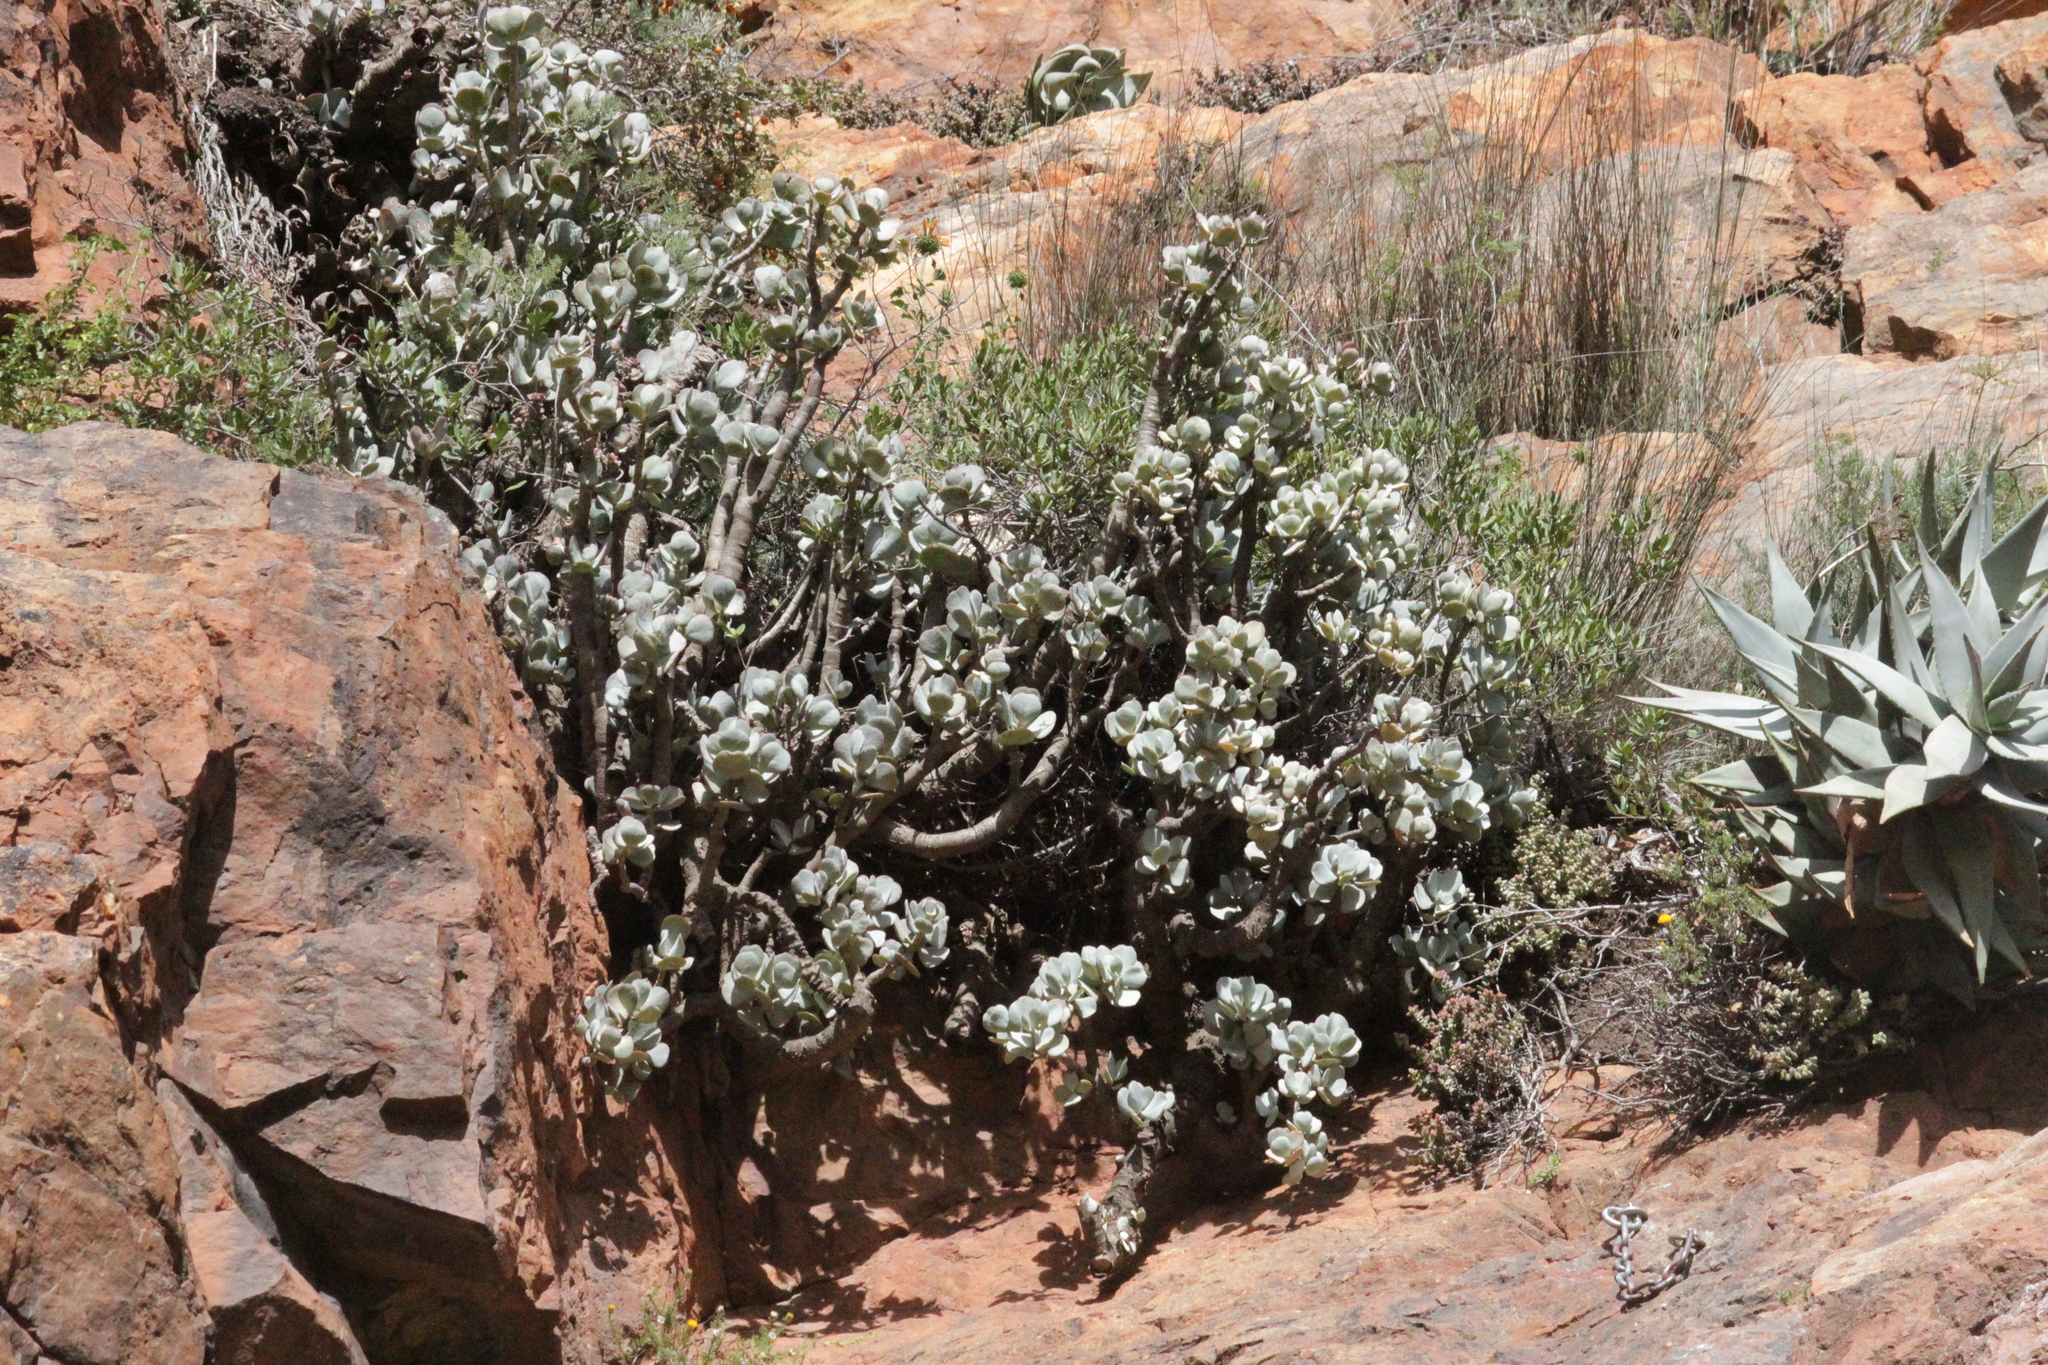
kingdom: Plantae
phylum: Tracheophyta
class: Magnoliopsida
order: Saxifragales
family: Crassulaceae
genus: Crassula
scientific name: Crassula arborescens
